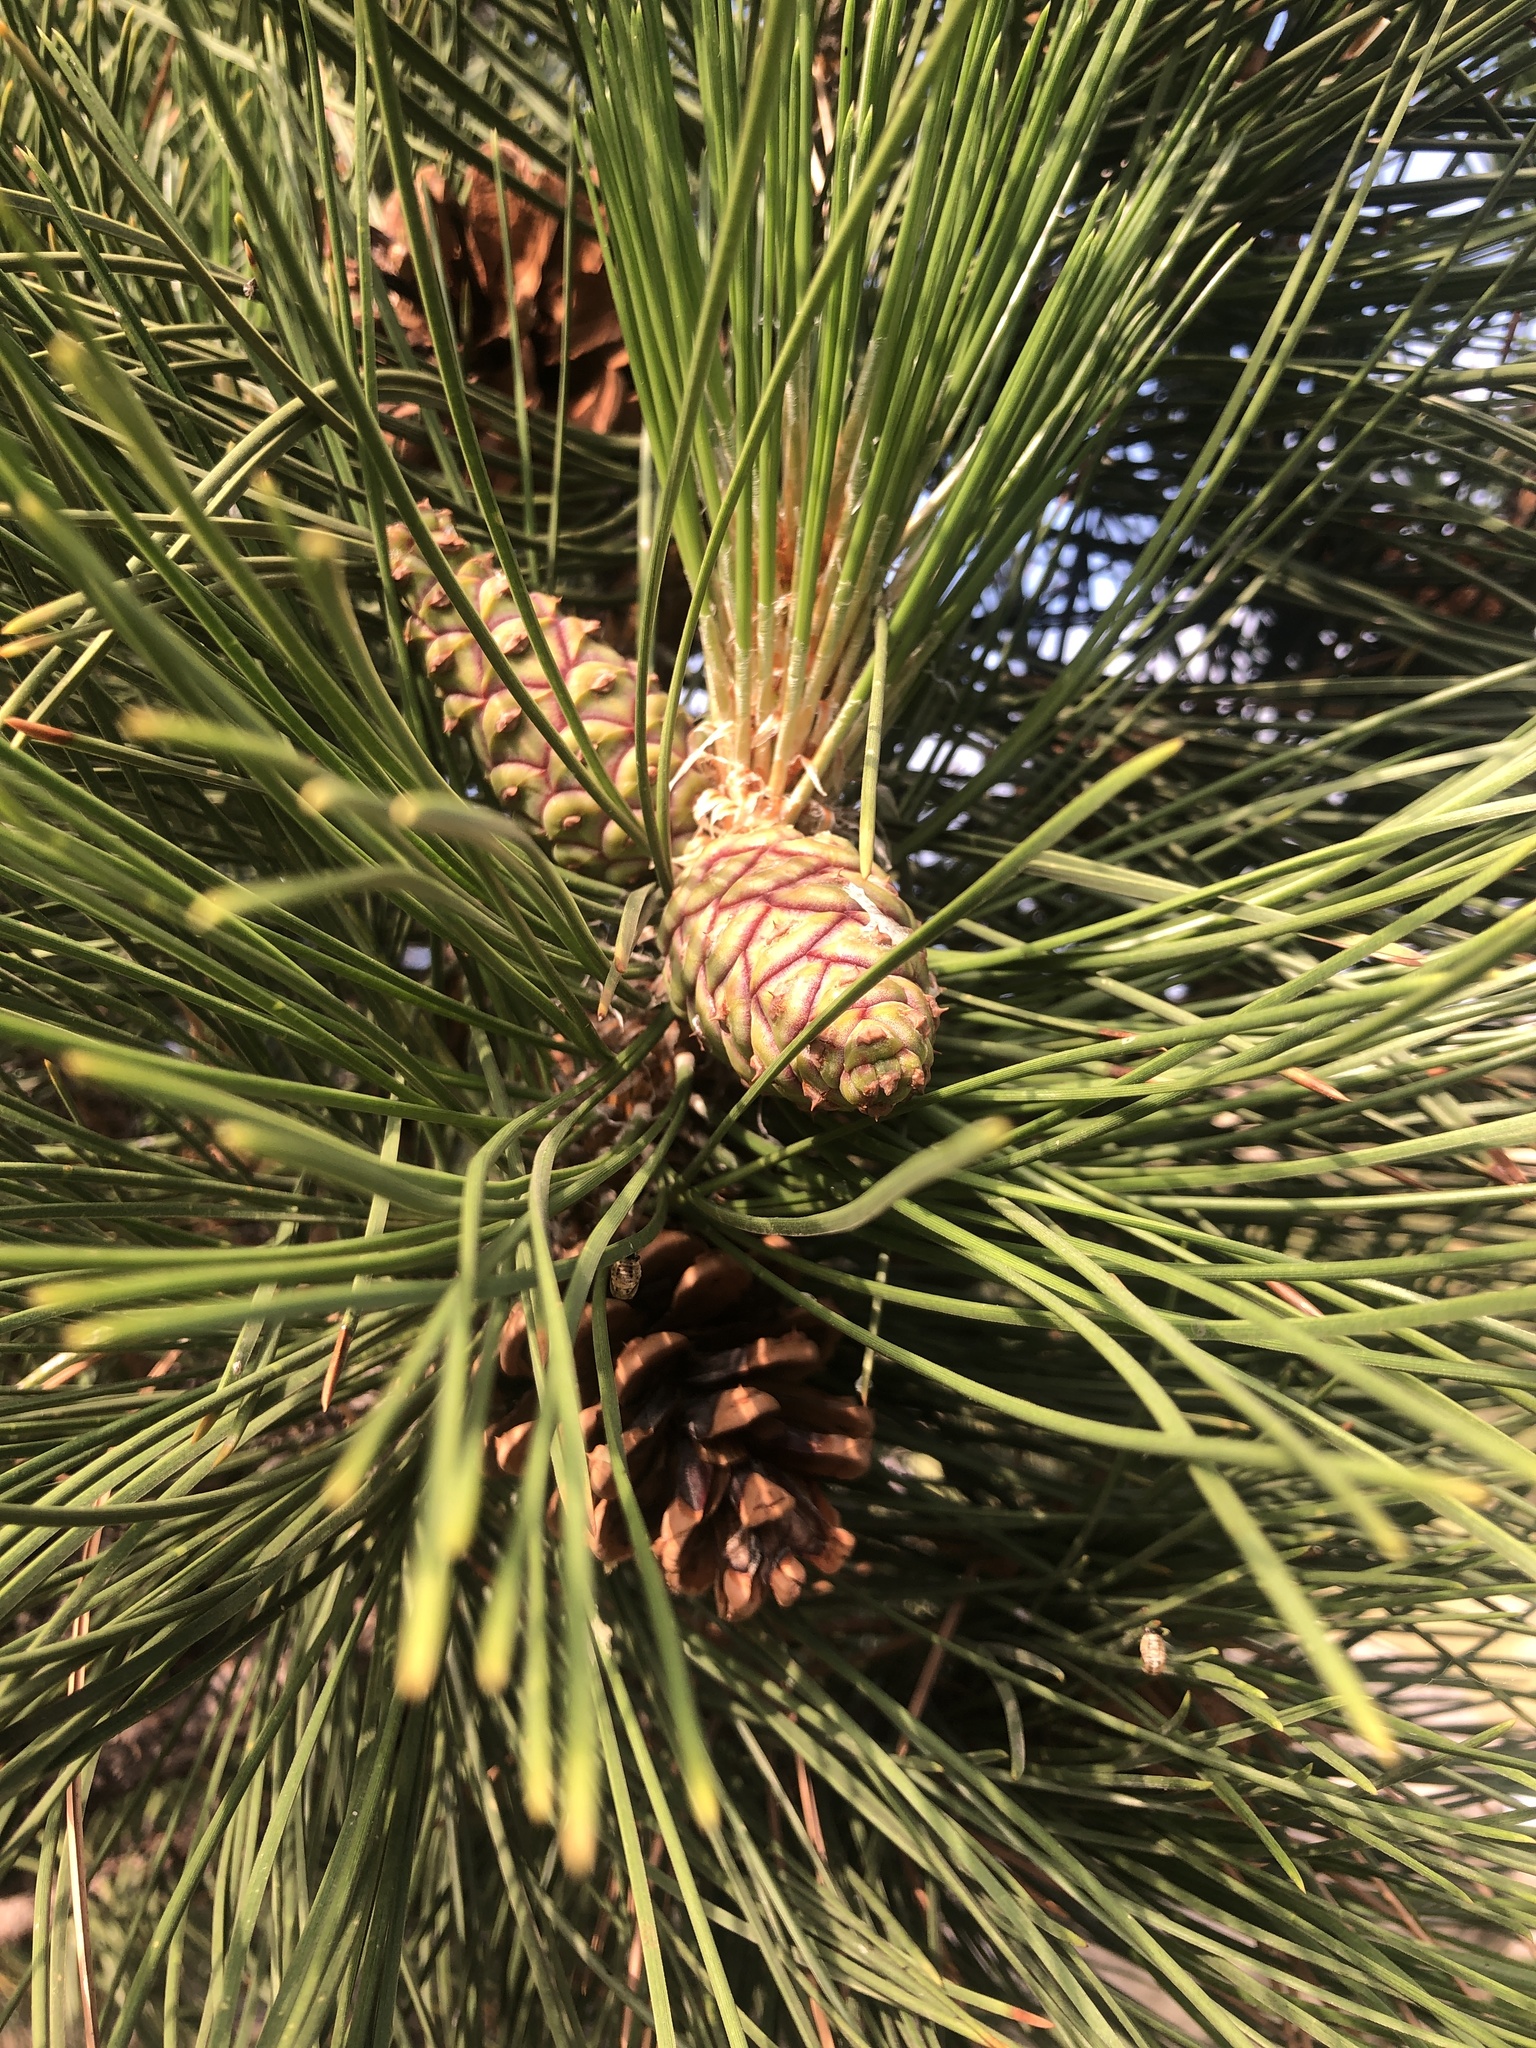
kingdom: Plantae
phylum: Tracheophyta
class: Pinopsida
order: Pinales
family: Pinaceae
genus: Pinus
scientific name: Pinus ponderosa
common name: Western yellow-pine
